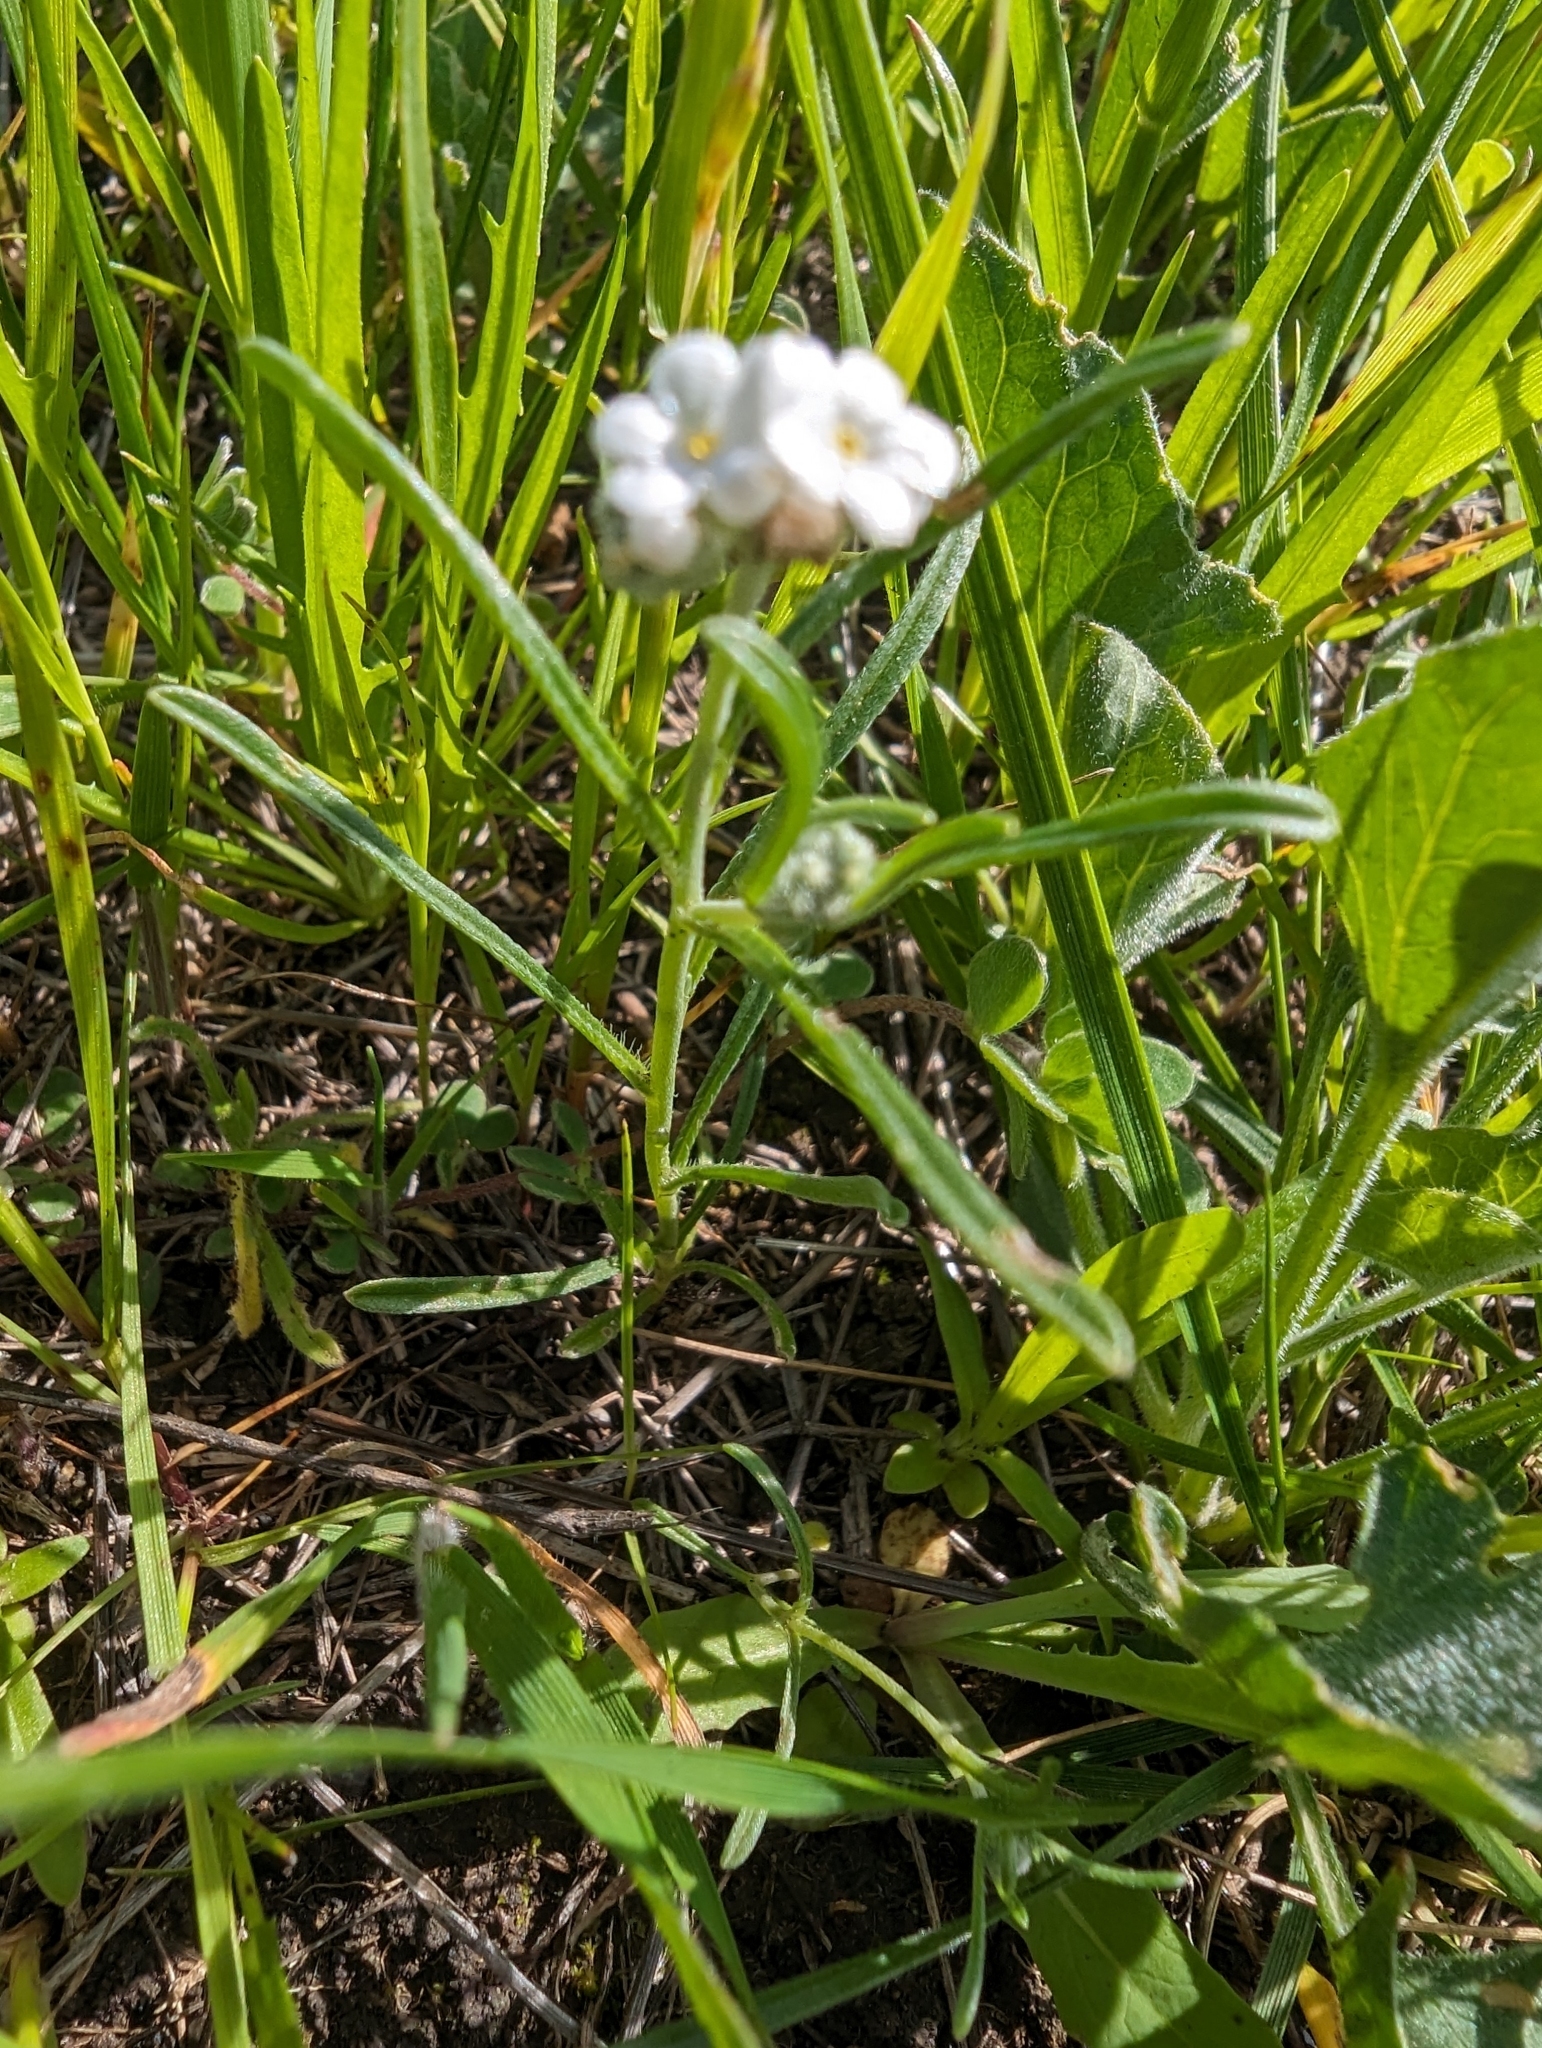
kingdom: Plantae
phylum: Tracheophyta
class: Magnoliopsida
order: Boraginales
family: Boraginaceae
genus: Cryptantha
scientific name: Cryptantha flaccida
